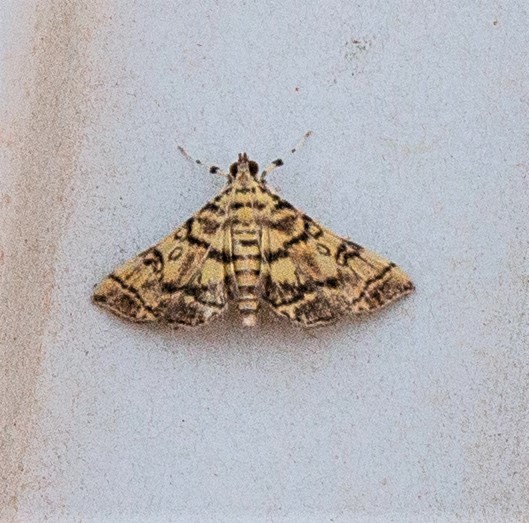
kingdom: Animalia
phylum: Arthropoda
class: Insecta
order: Lepidoptera
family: Crambidae
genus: Apogeshna
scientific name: Apogeshna stenialis
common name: Checkered apogeshna moth
